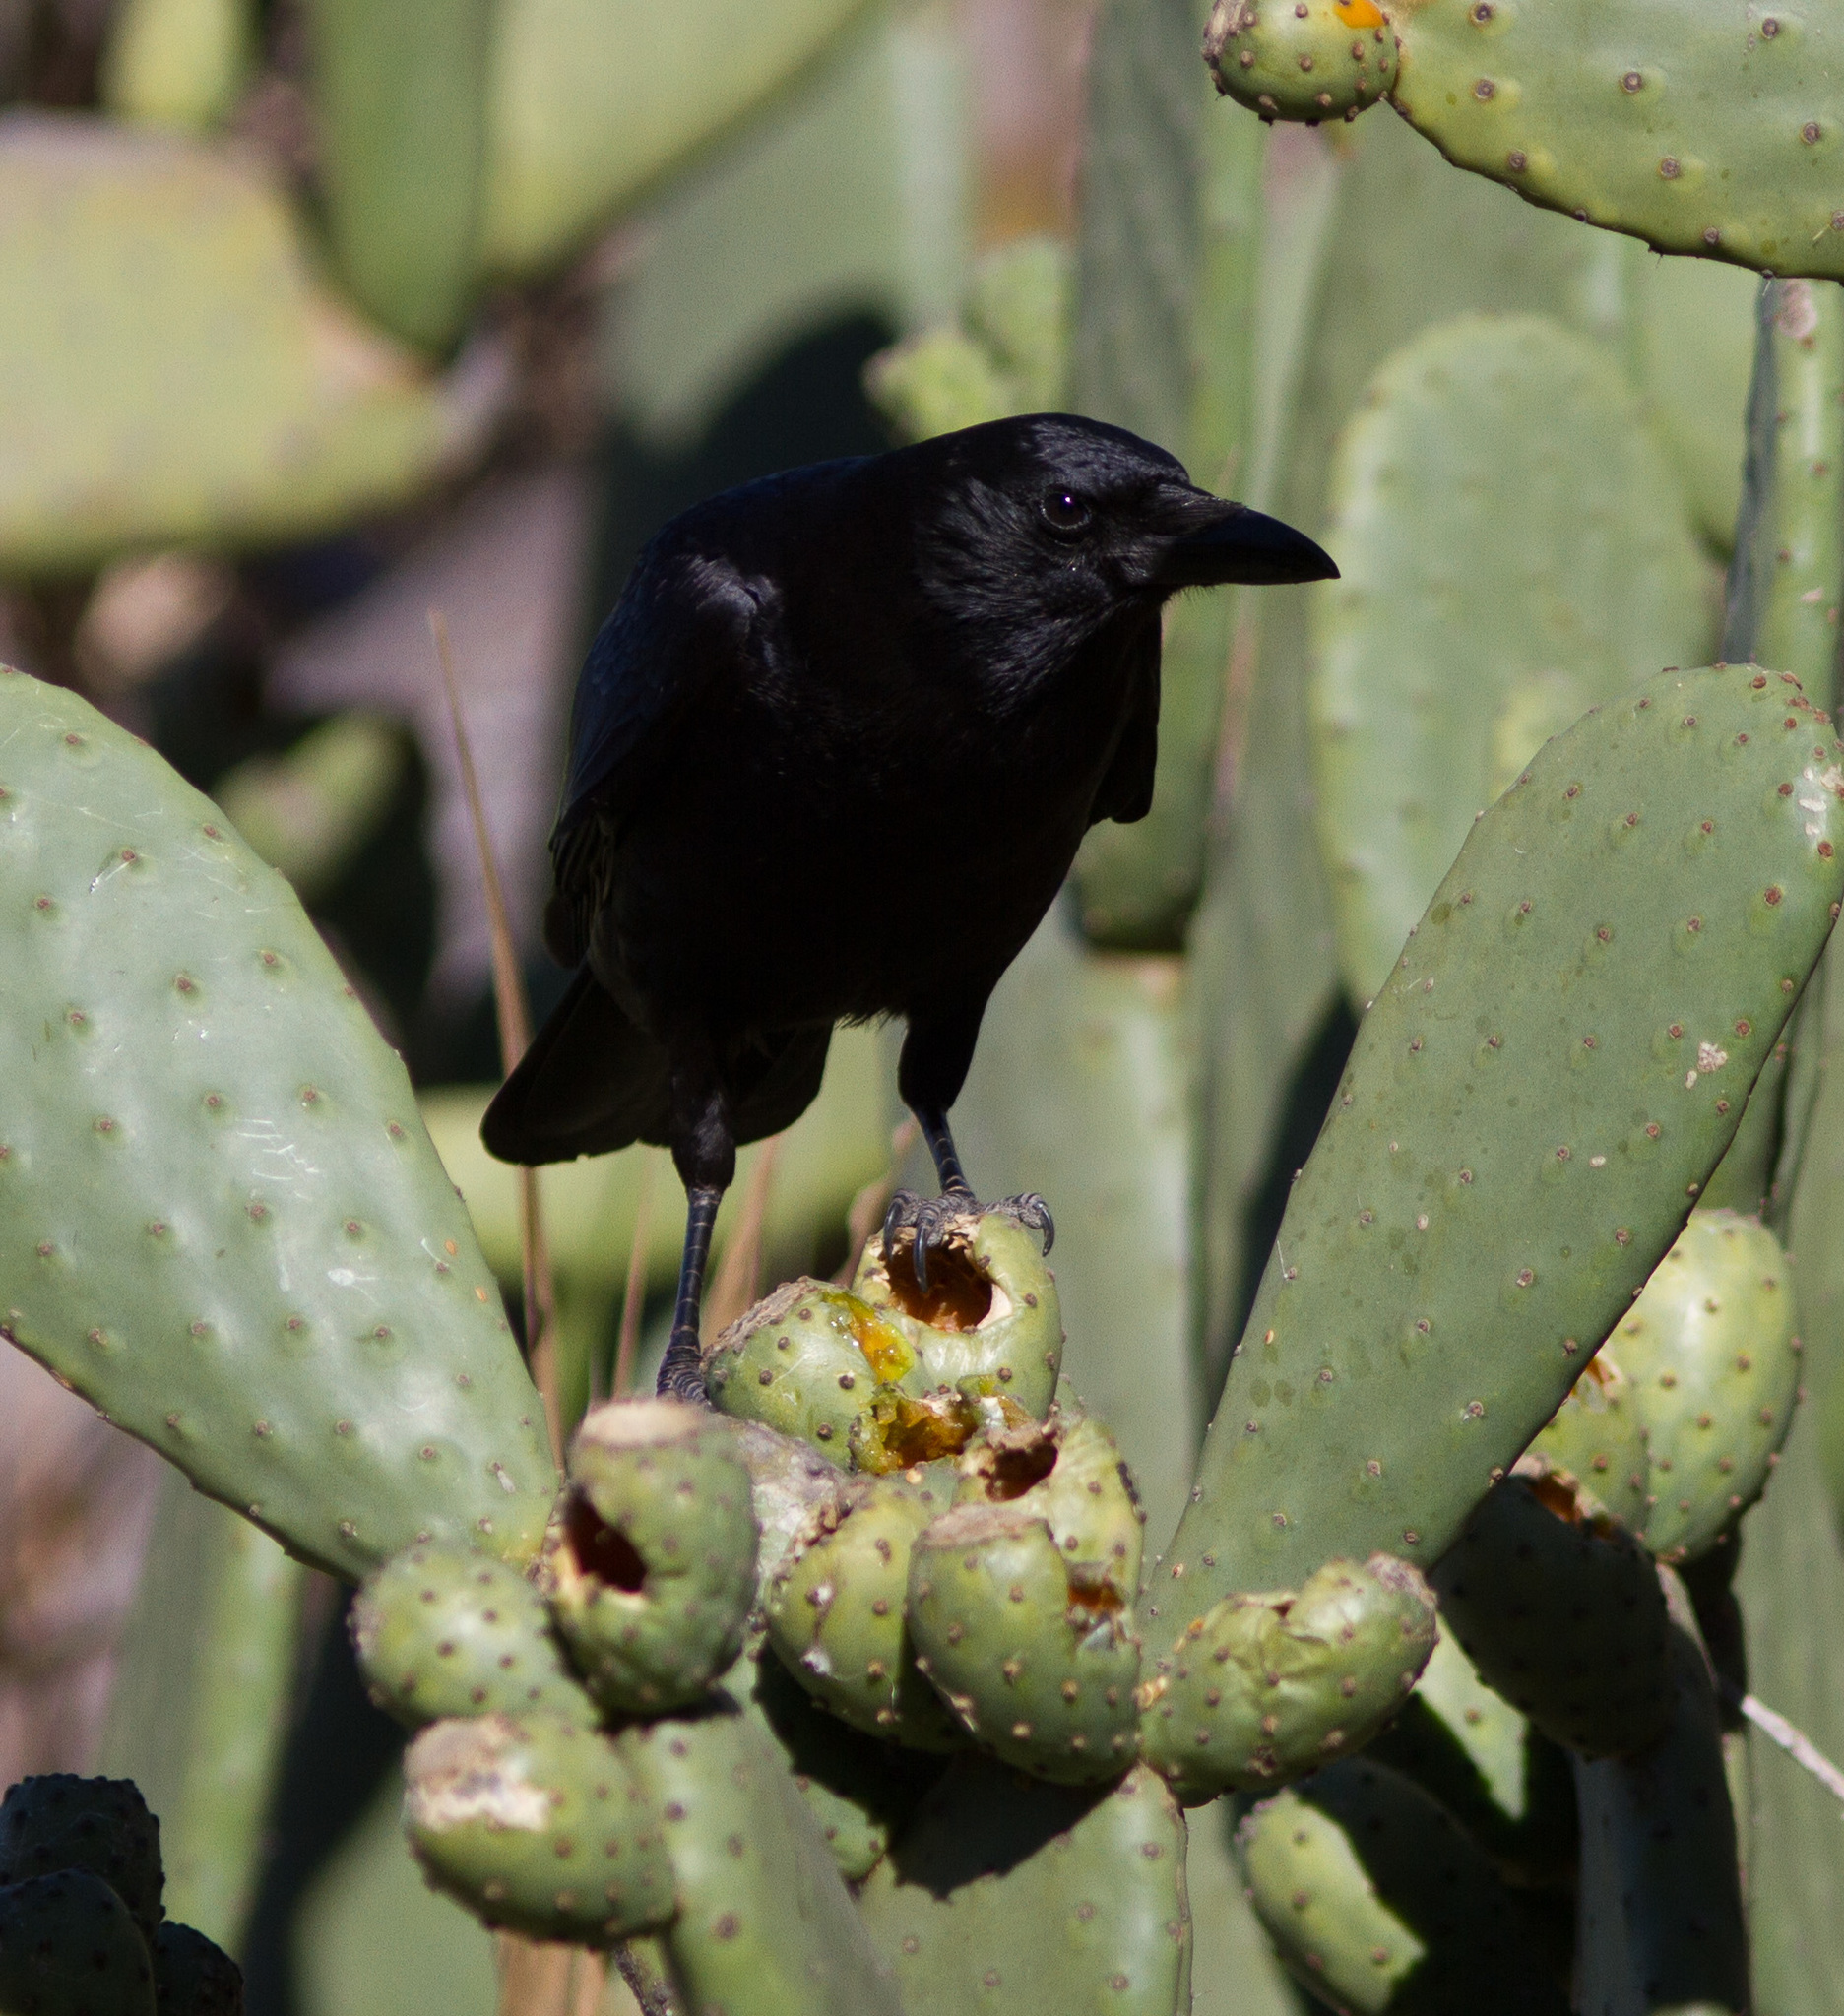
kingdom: Animalia
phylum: Chordata
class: Aves
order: Passeriformes
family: Corvidae
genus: Corvus
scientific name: Corvus brachyrhynchos
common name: American crow
